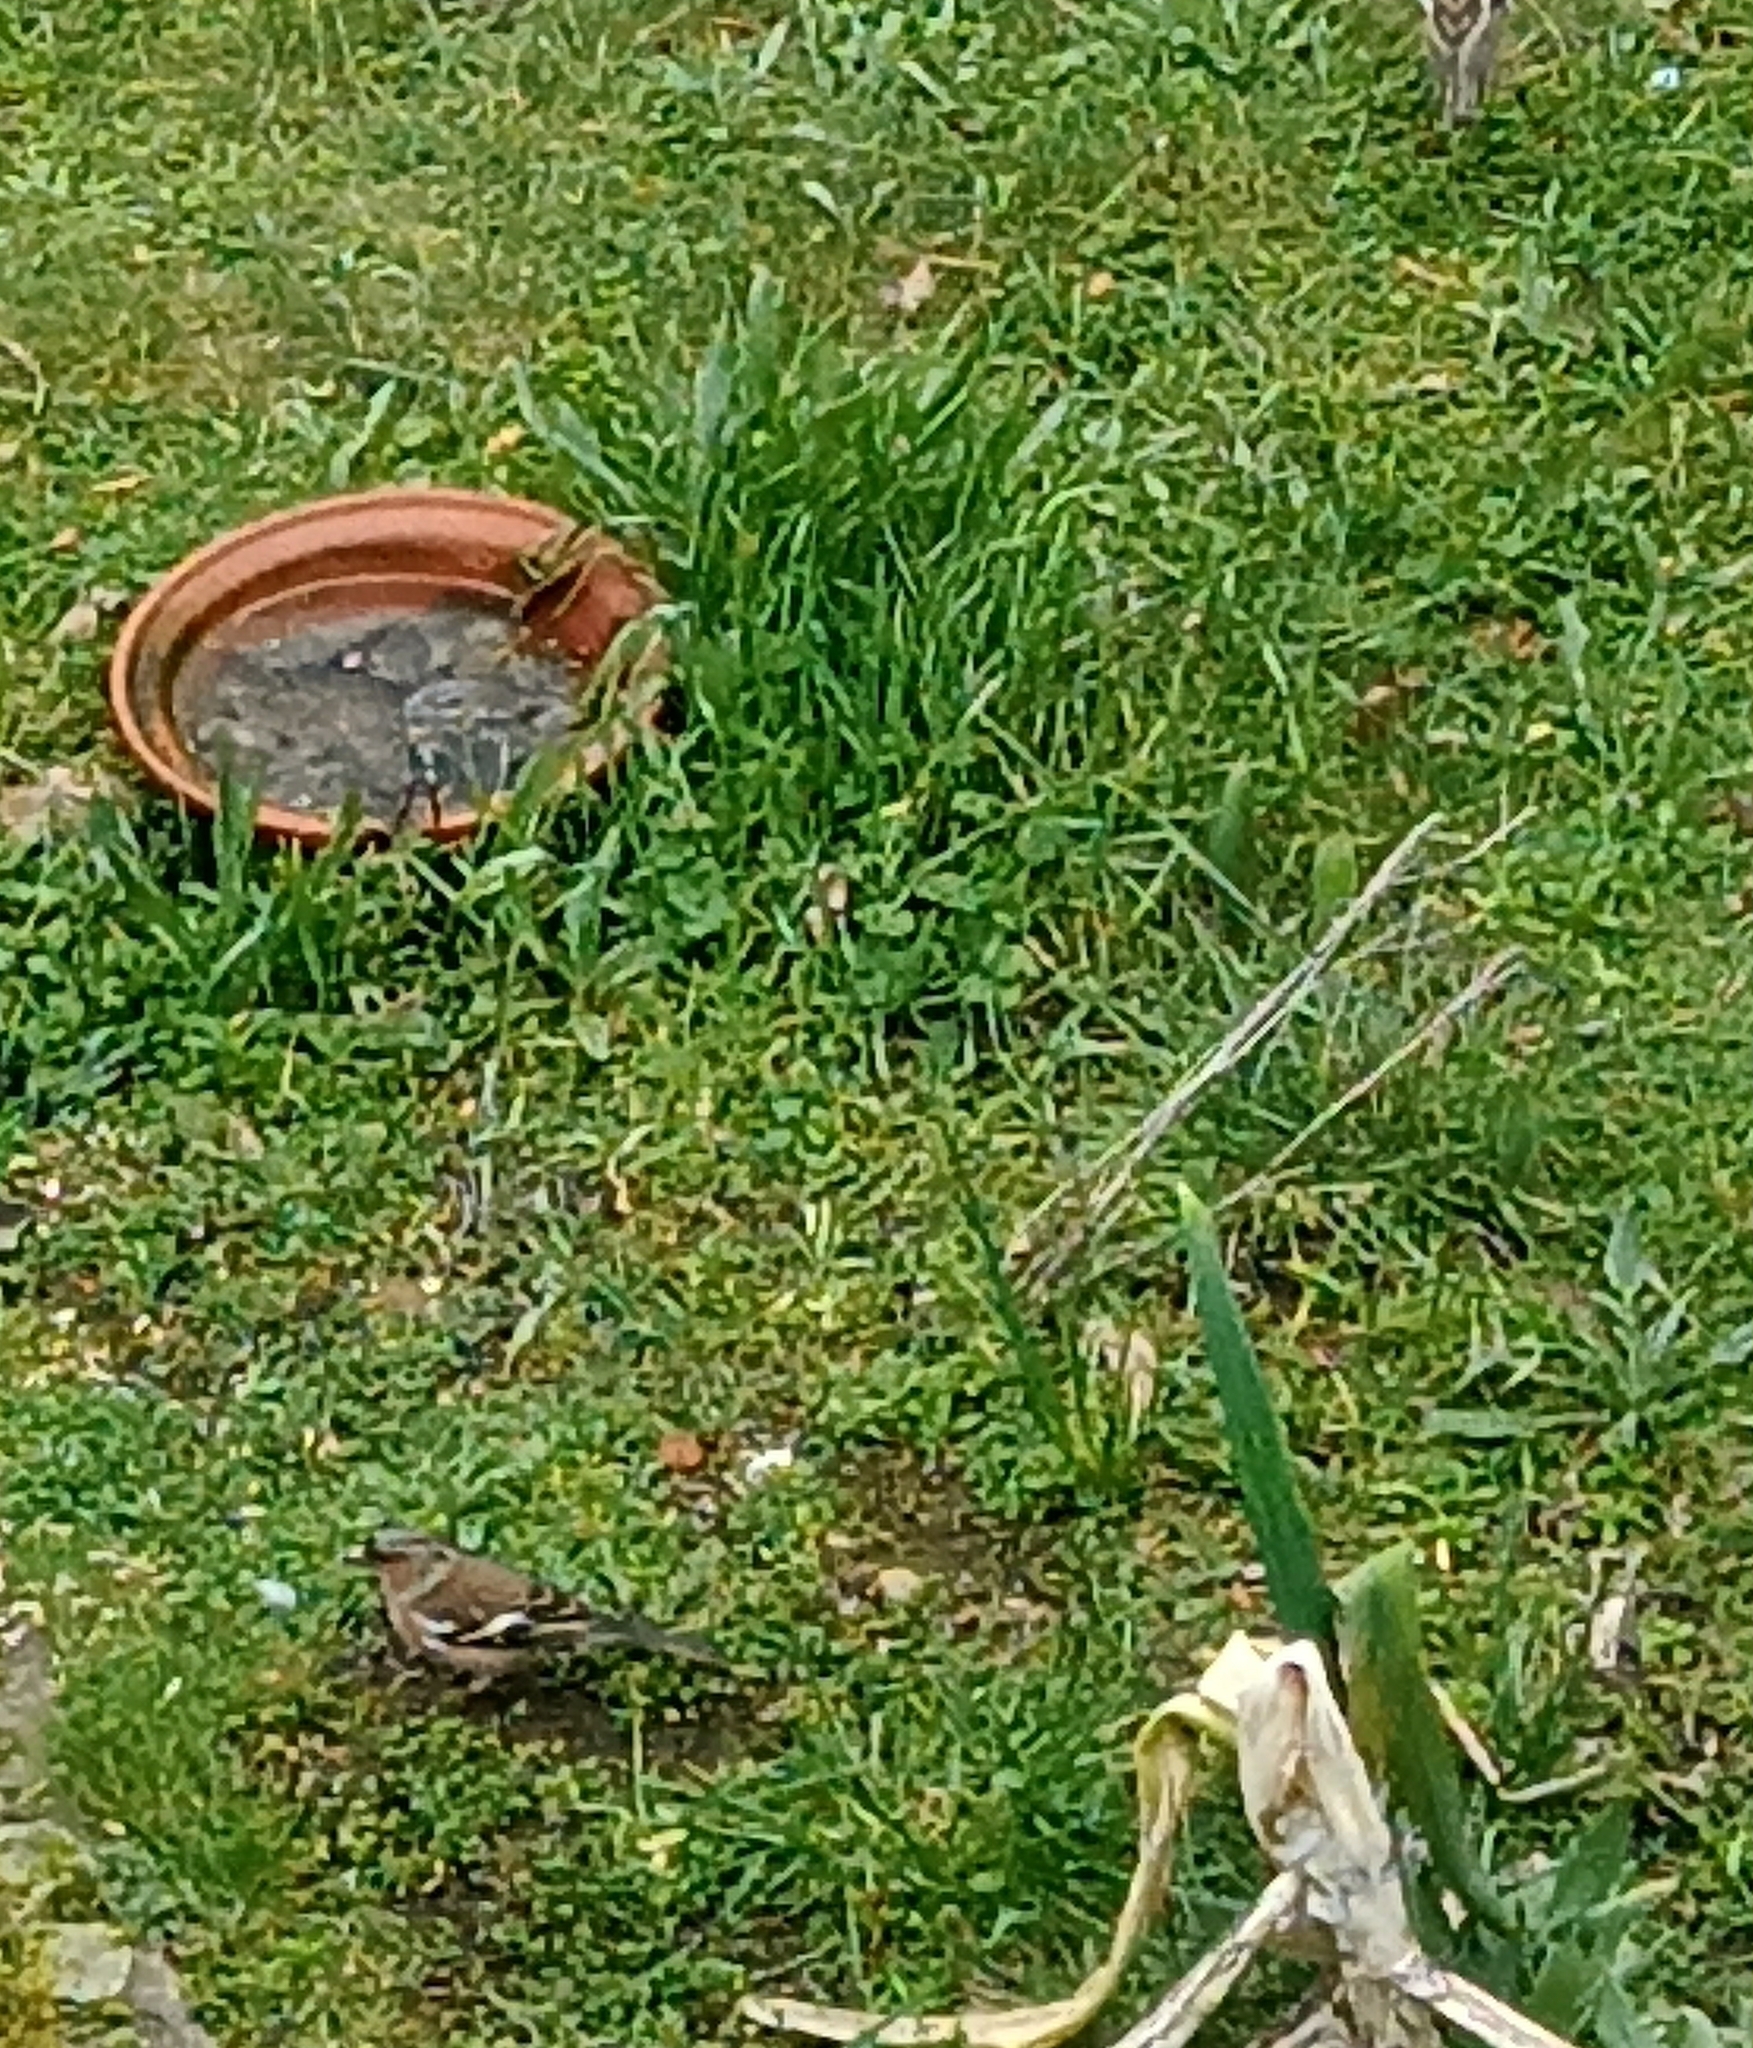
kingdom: Animalia
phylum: Chordata
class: Aves
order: Passeriformes
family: Fringillidae
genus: Fringilla
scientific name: Fringilla coelebs
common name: Common chaffinch
